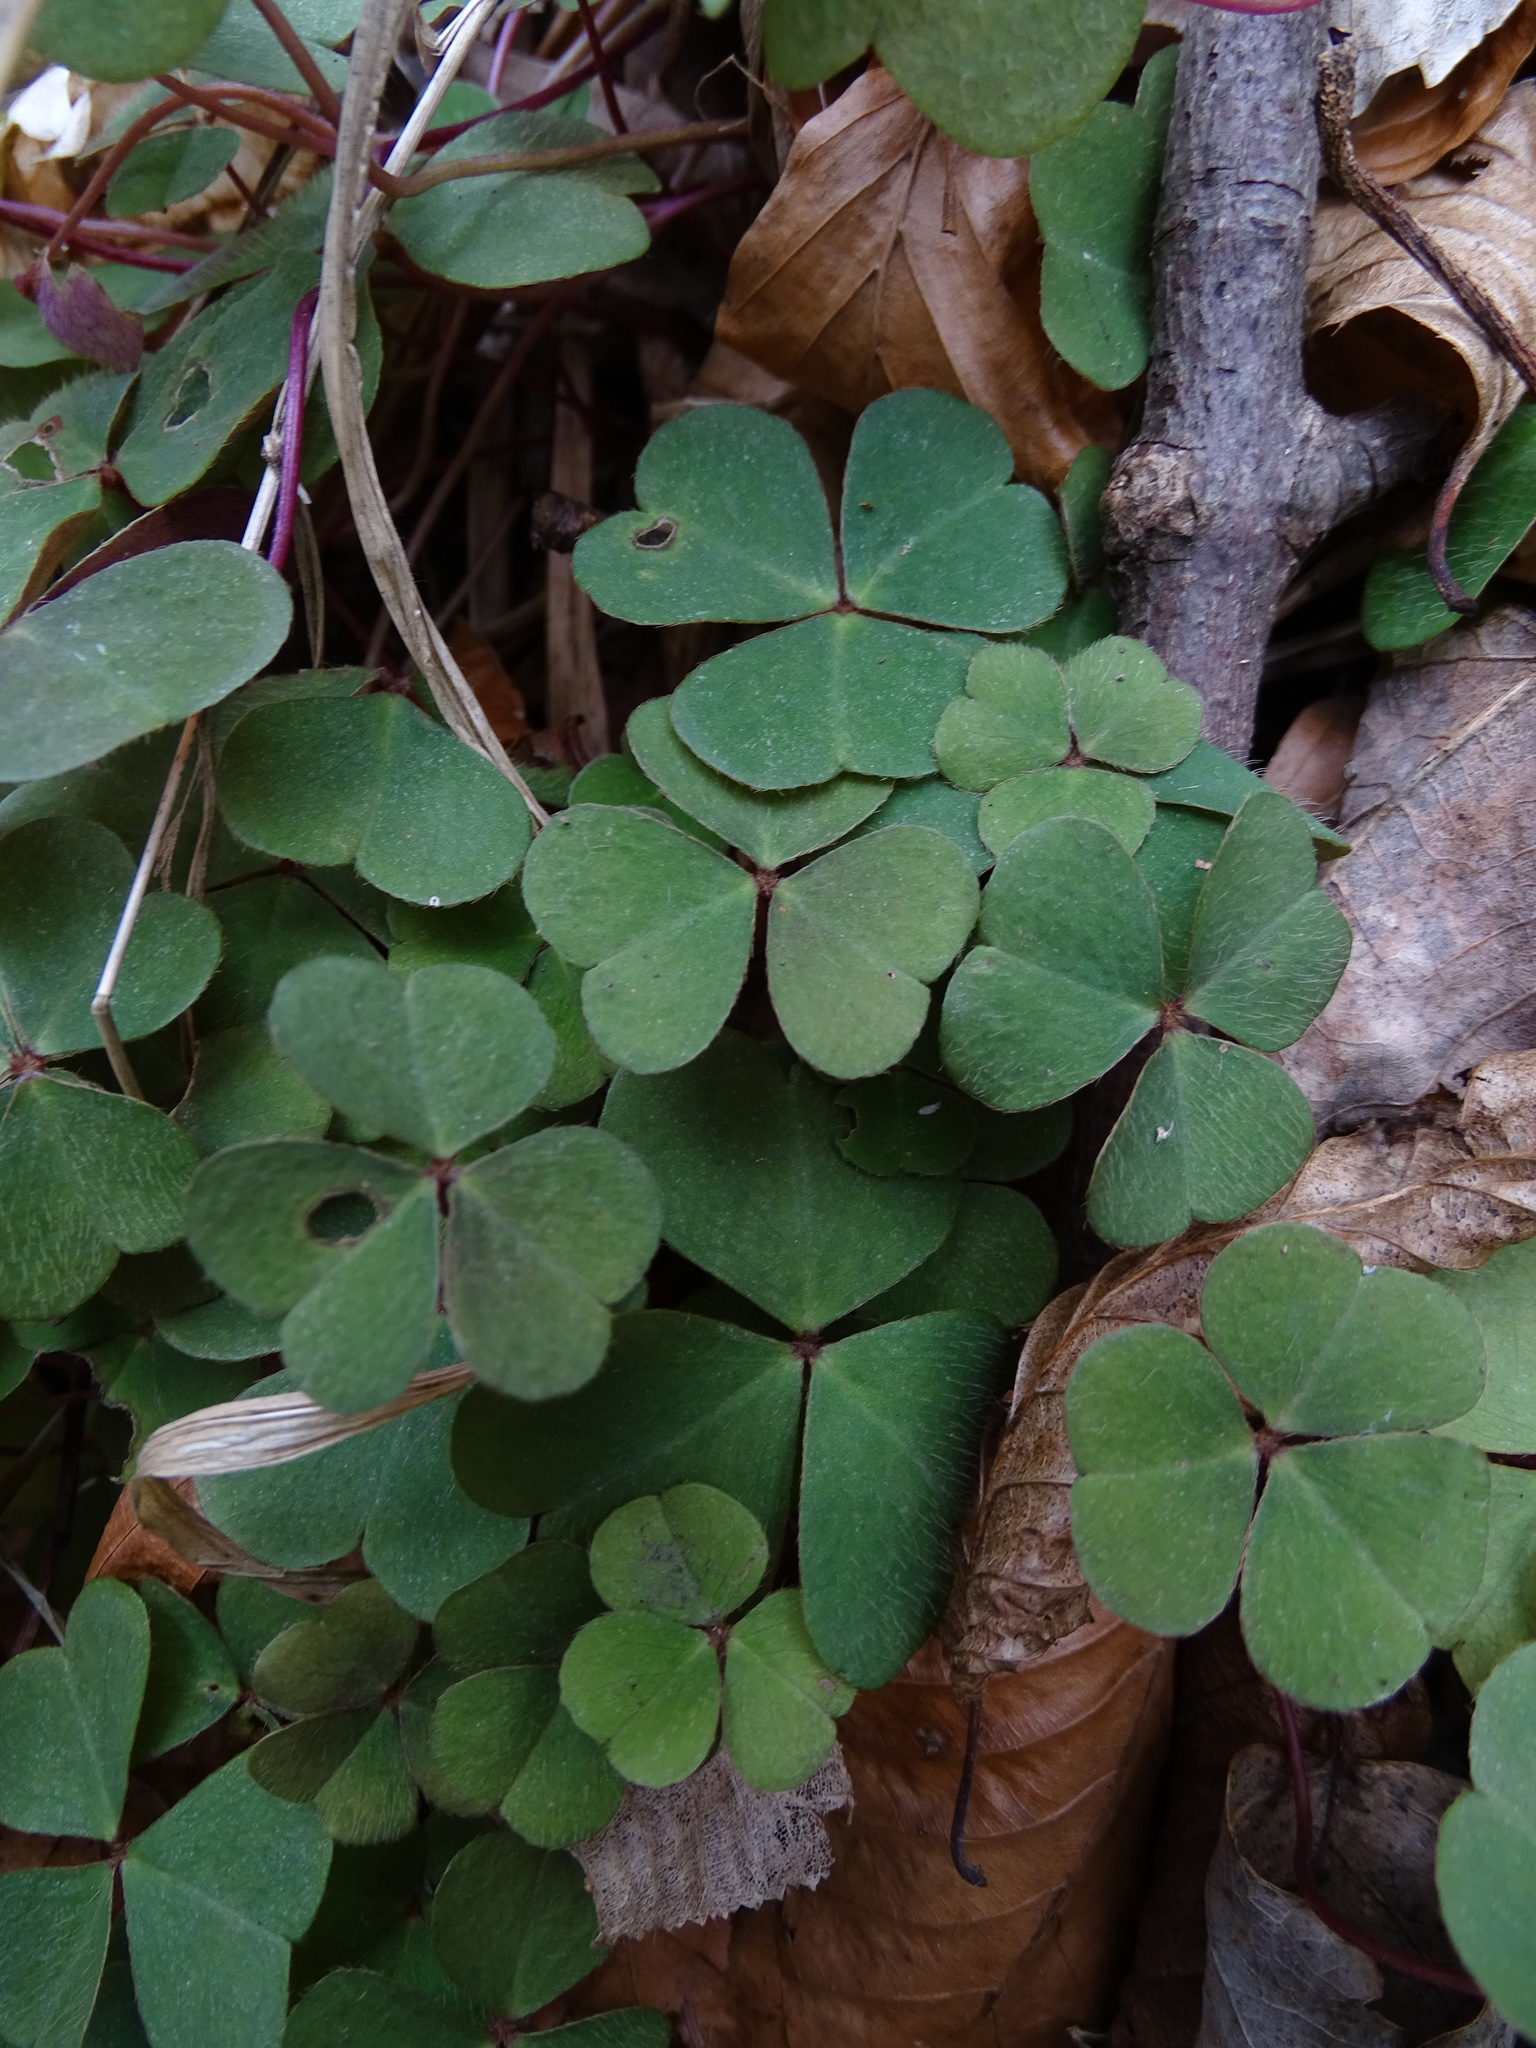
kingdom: Plantae
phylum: Tracheophyta
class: Magnoliopsida
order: Oxalidales
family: Oxalidaceae
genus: Oxalis
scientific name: Oxalis acetosella
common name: Wood-sorrel
